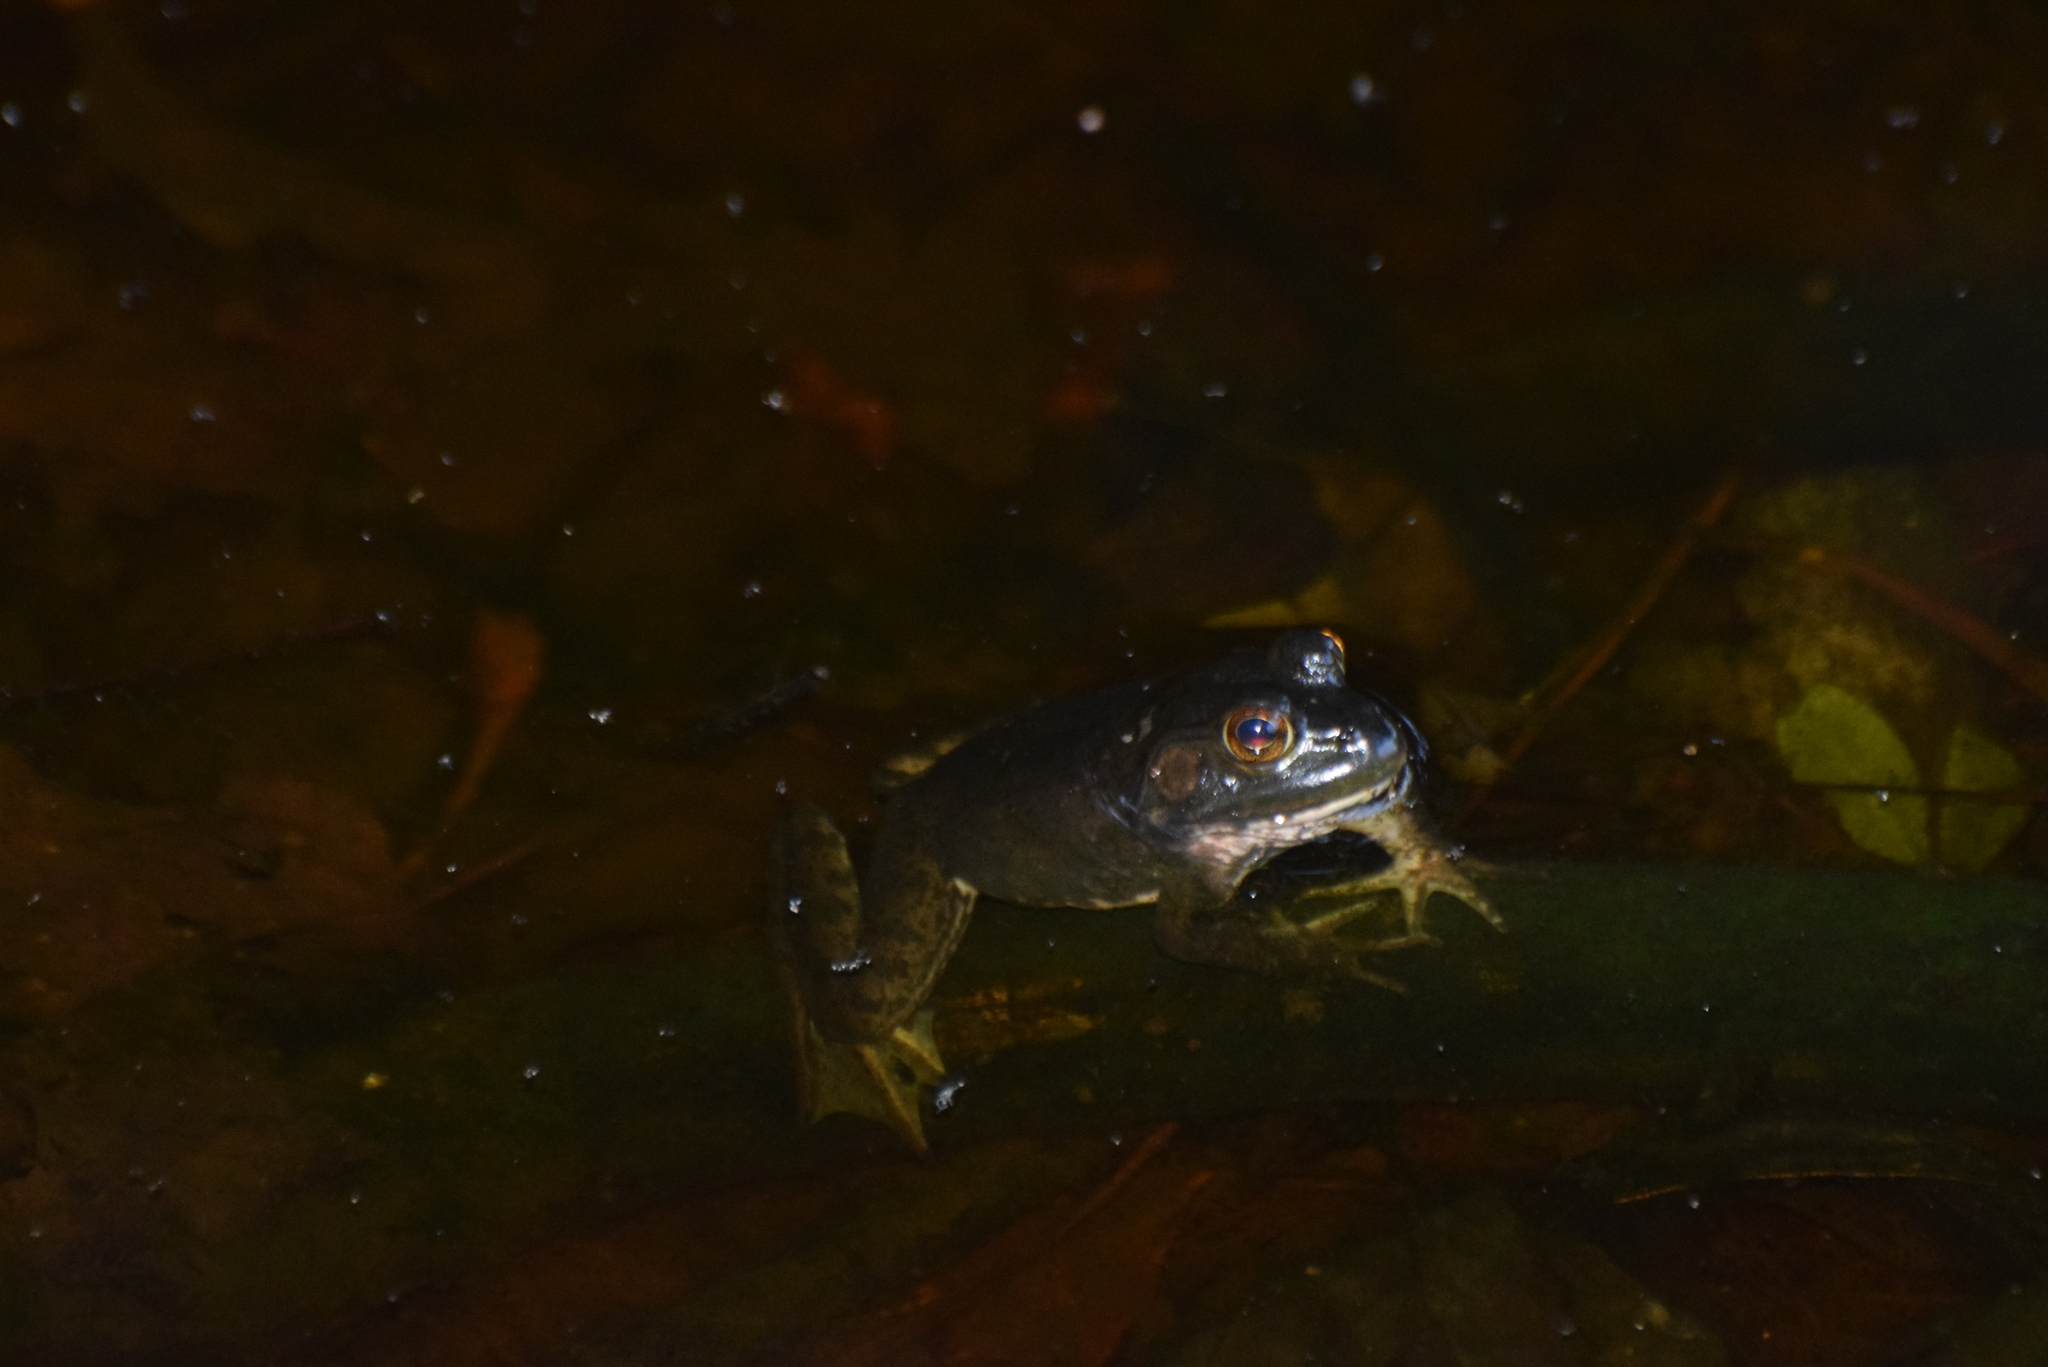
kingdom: Animalia
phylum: Chordata
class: Amphibia
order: Anura
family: Ranidae
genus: Lithobates
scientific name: Lithobates catesbeianus
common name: American bullfrog
